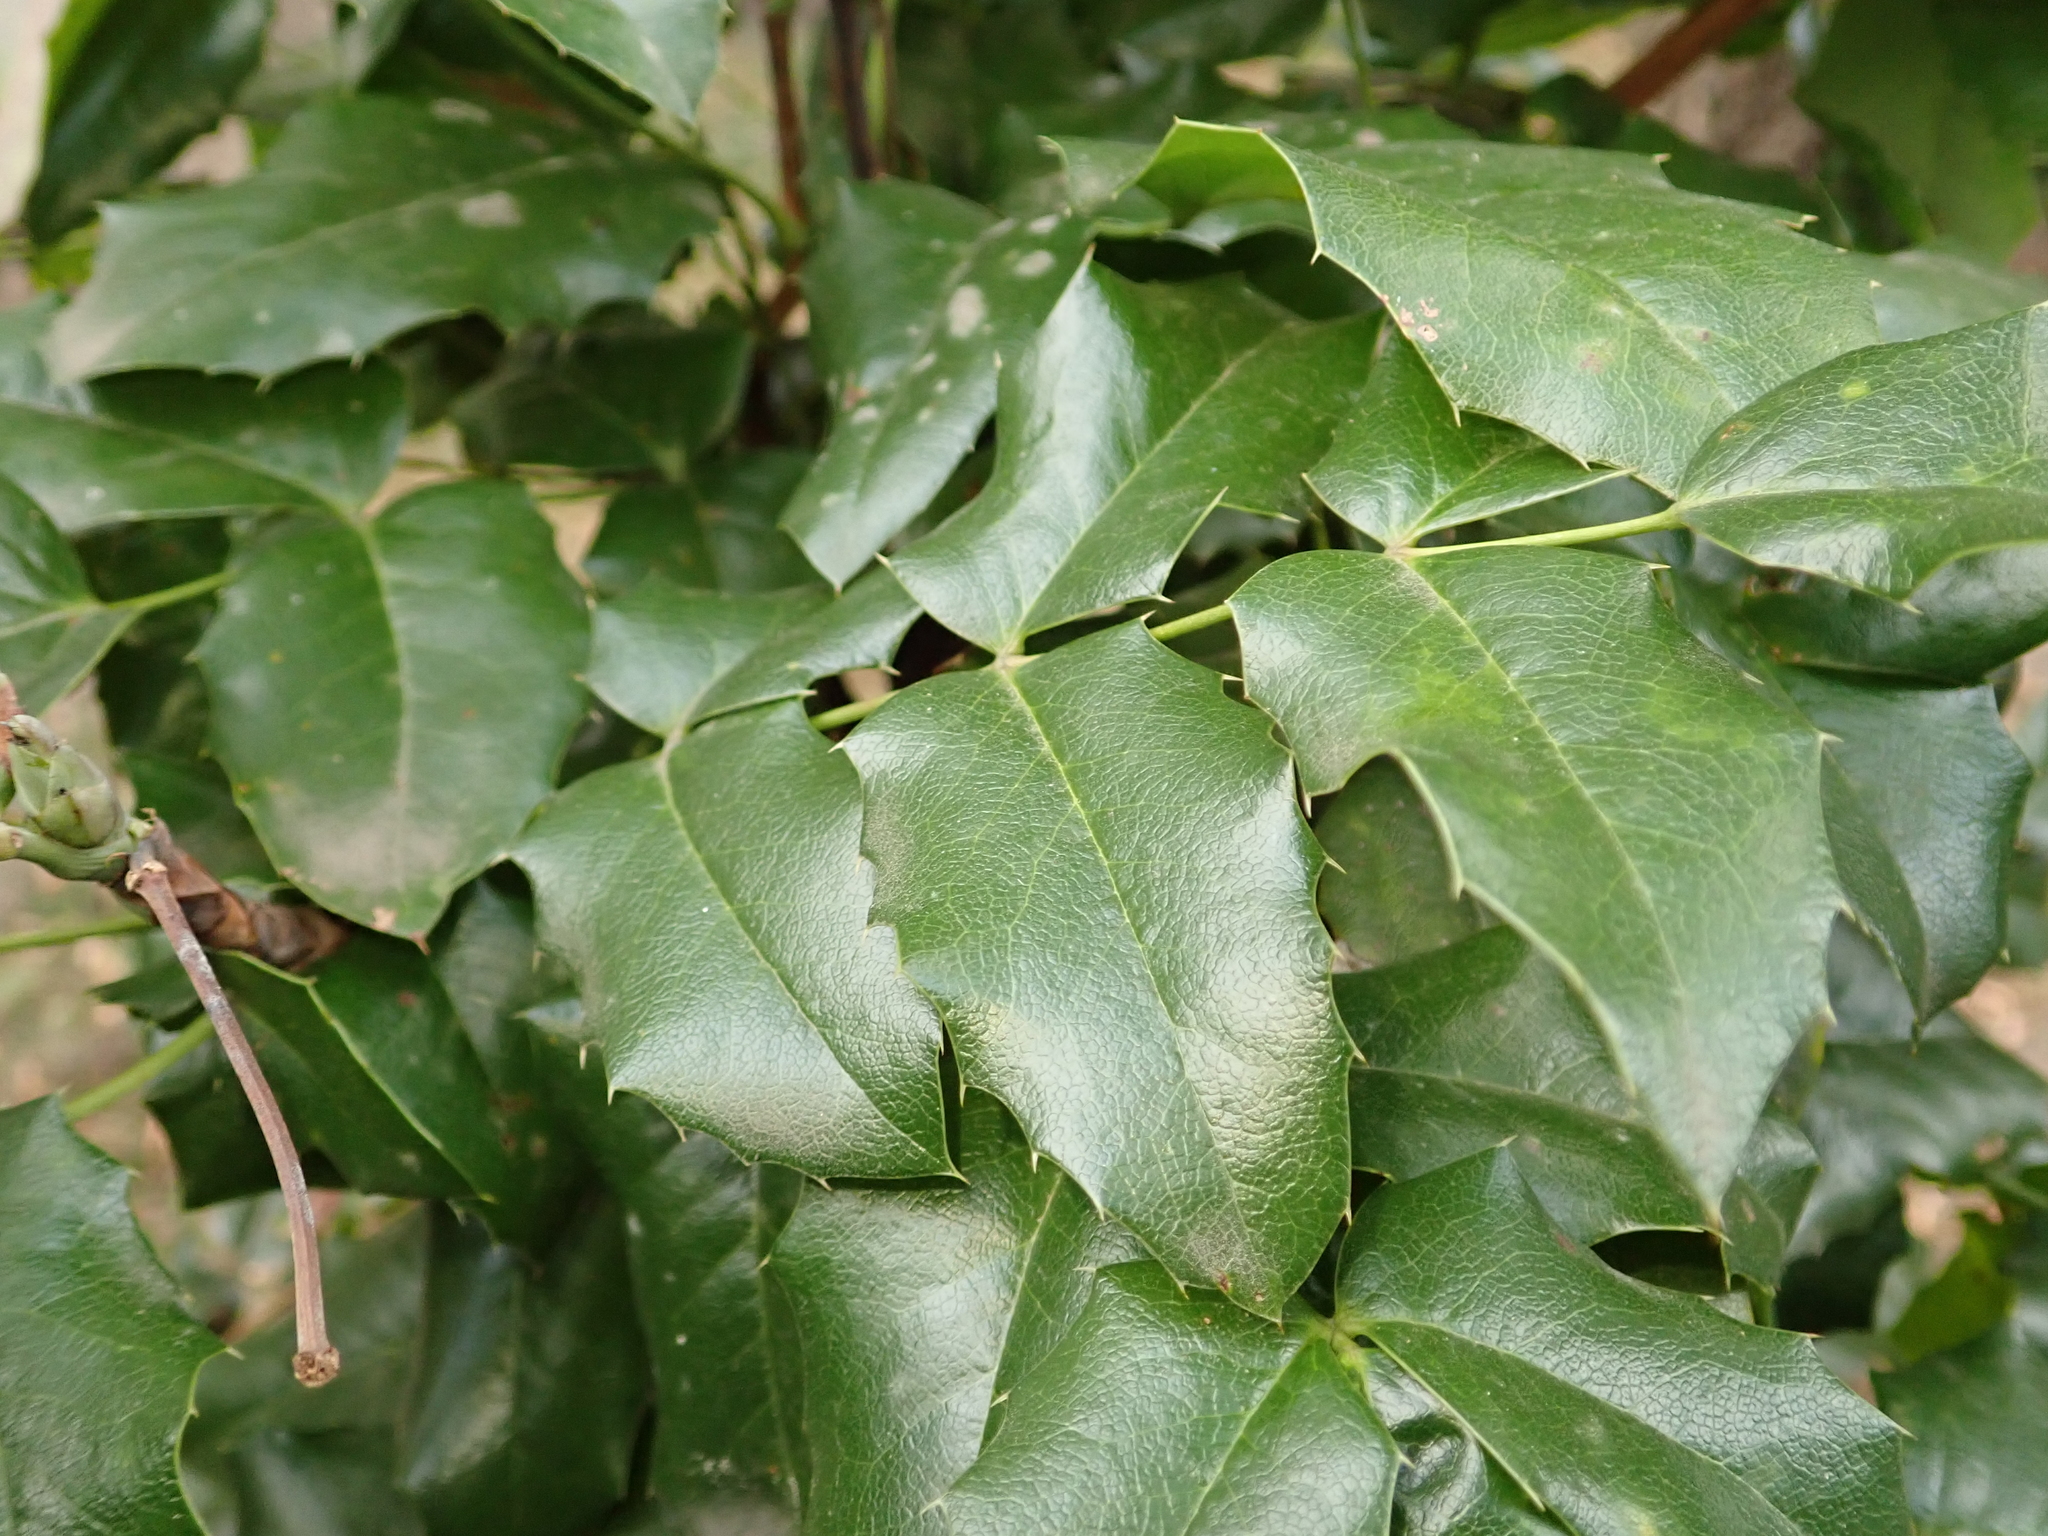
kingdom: Plantae
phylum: Tracheophyta
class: Magnoliopsida
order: Ranunculales
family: Berberidaceae
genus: Mahonia
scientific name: Mahonia aquifolium
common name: Oregon-grape
